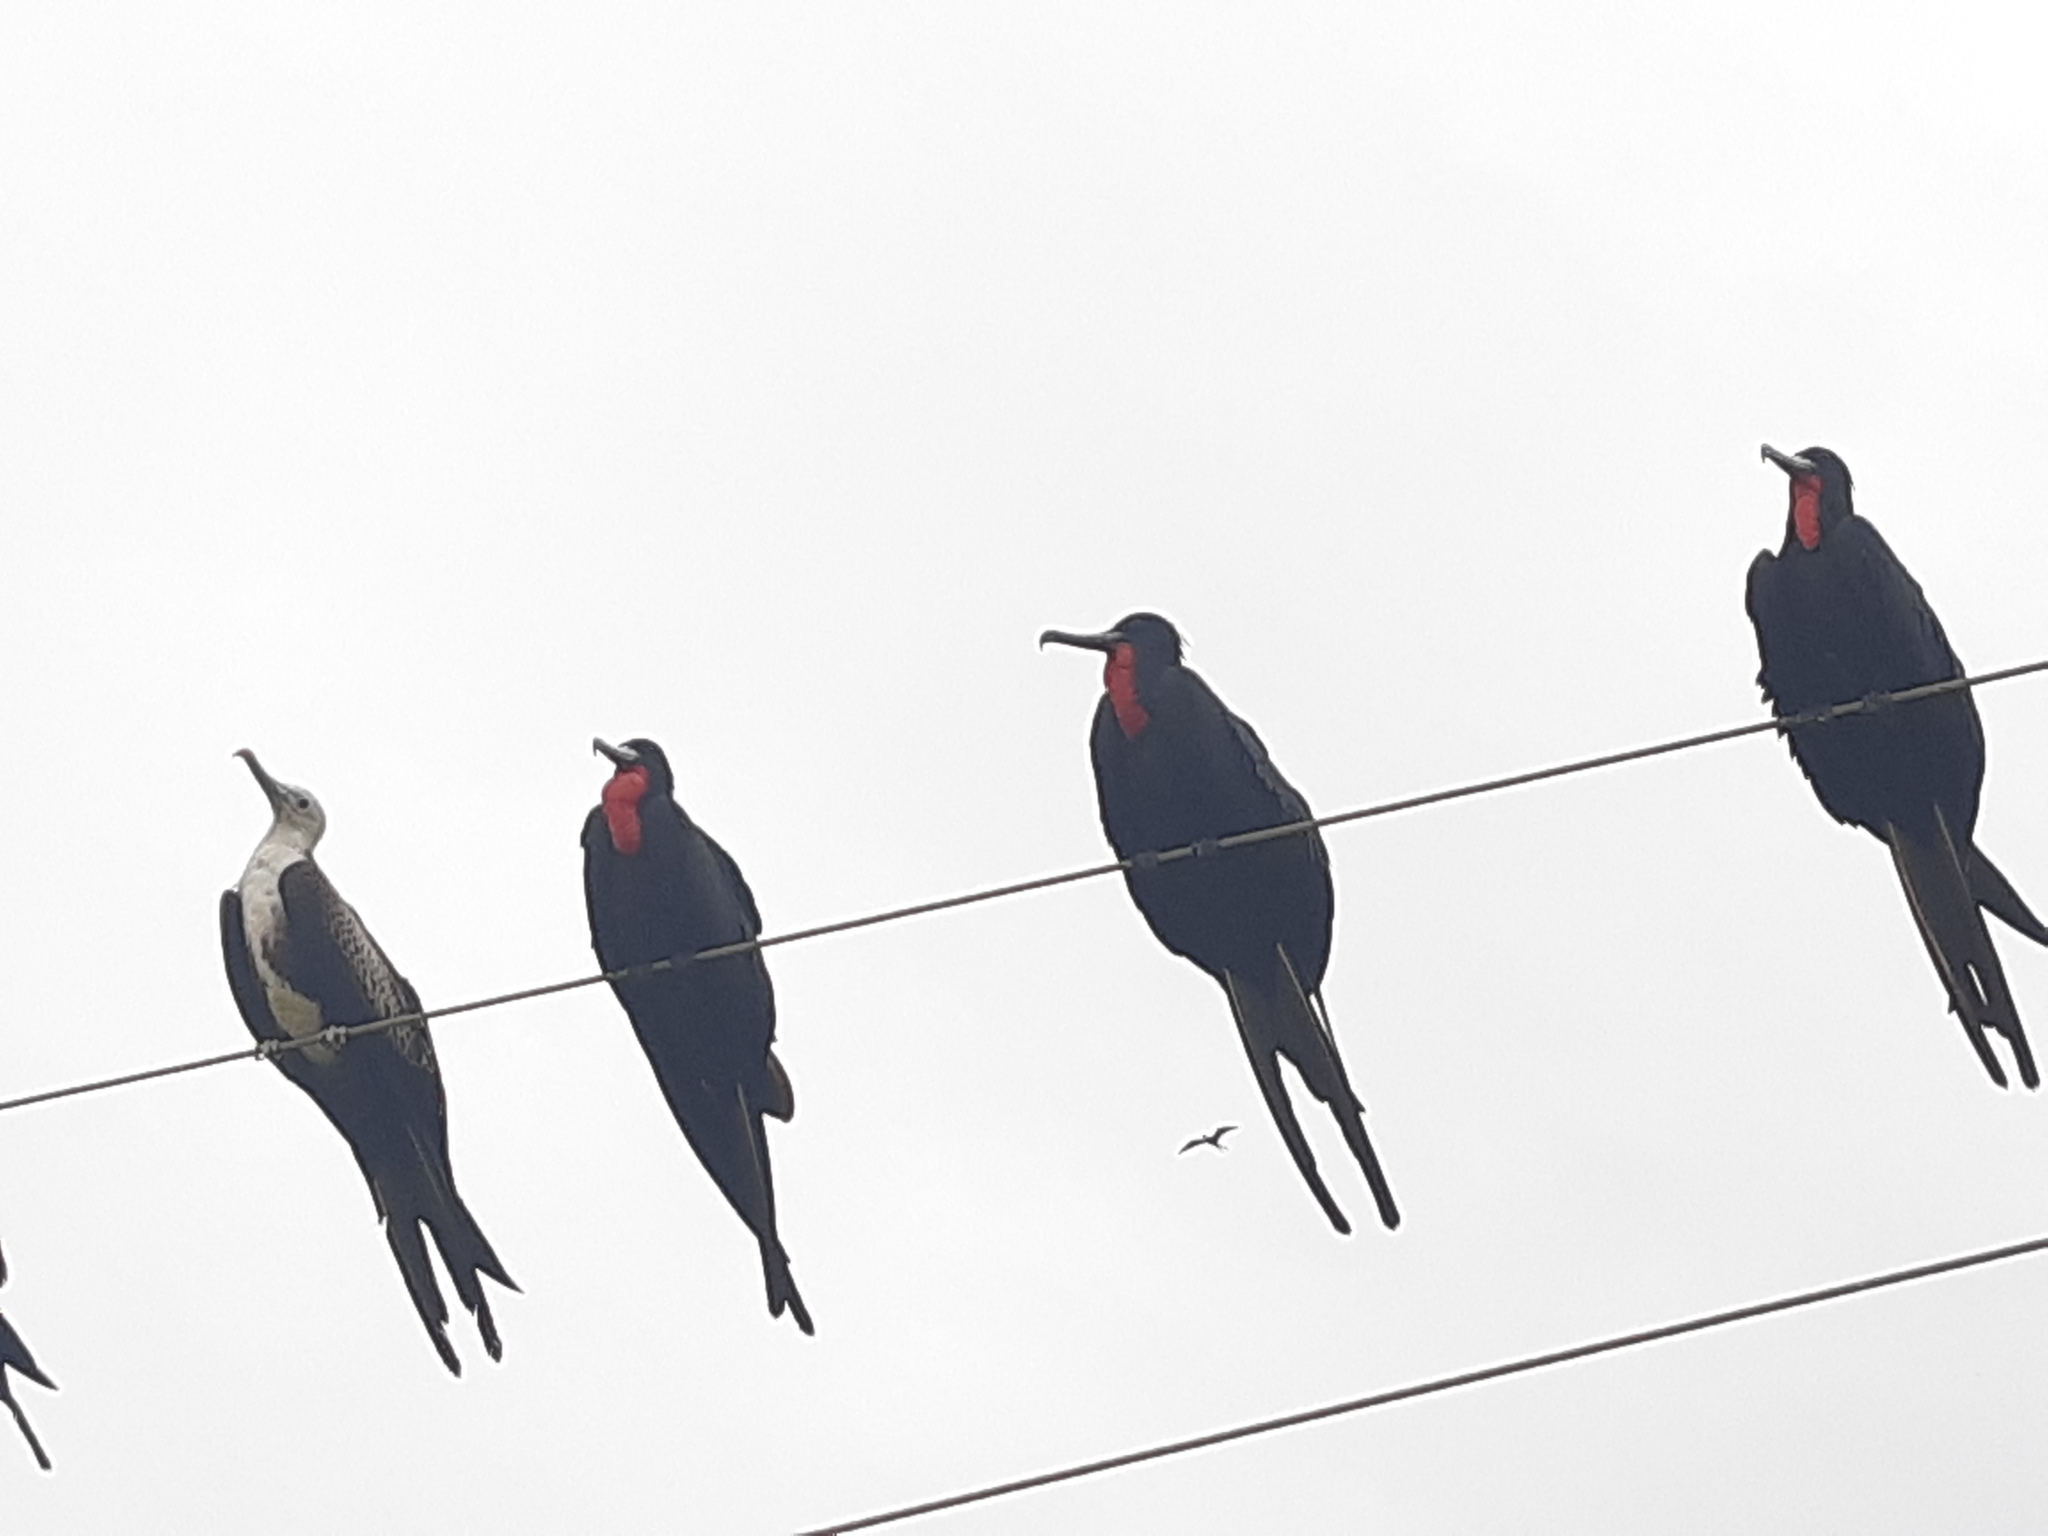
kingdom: Animalia
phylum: Chordata
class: Aves
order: Suliformes
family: Fregatidae
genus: Fregata
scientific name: Fregata magnificens
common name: Magnificent frigatebird
